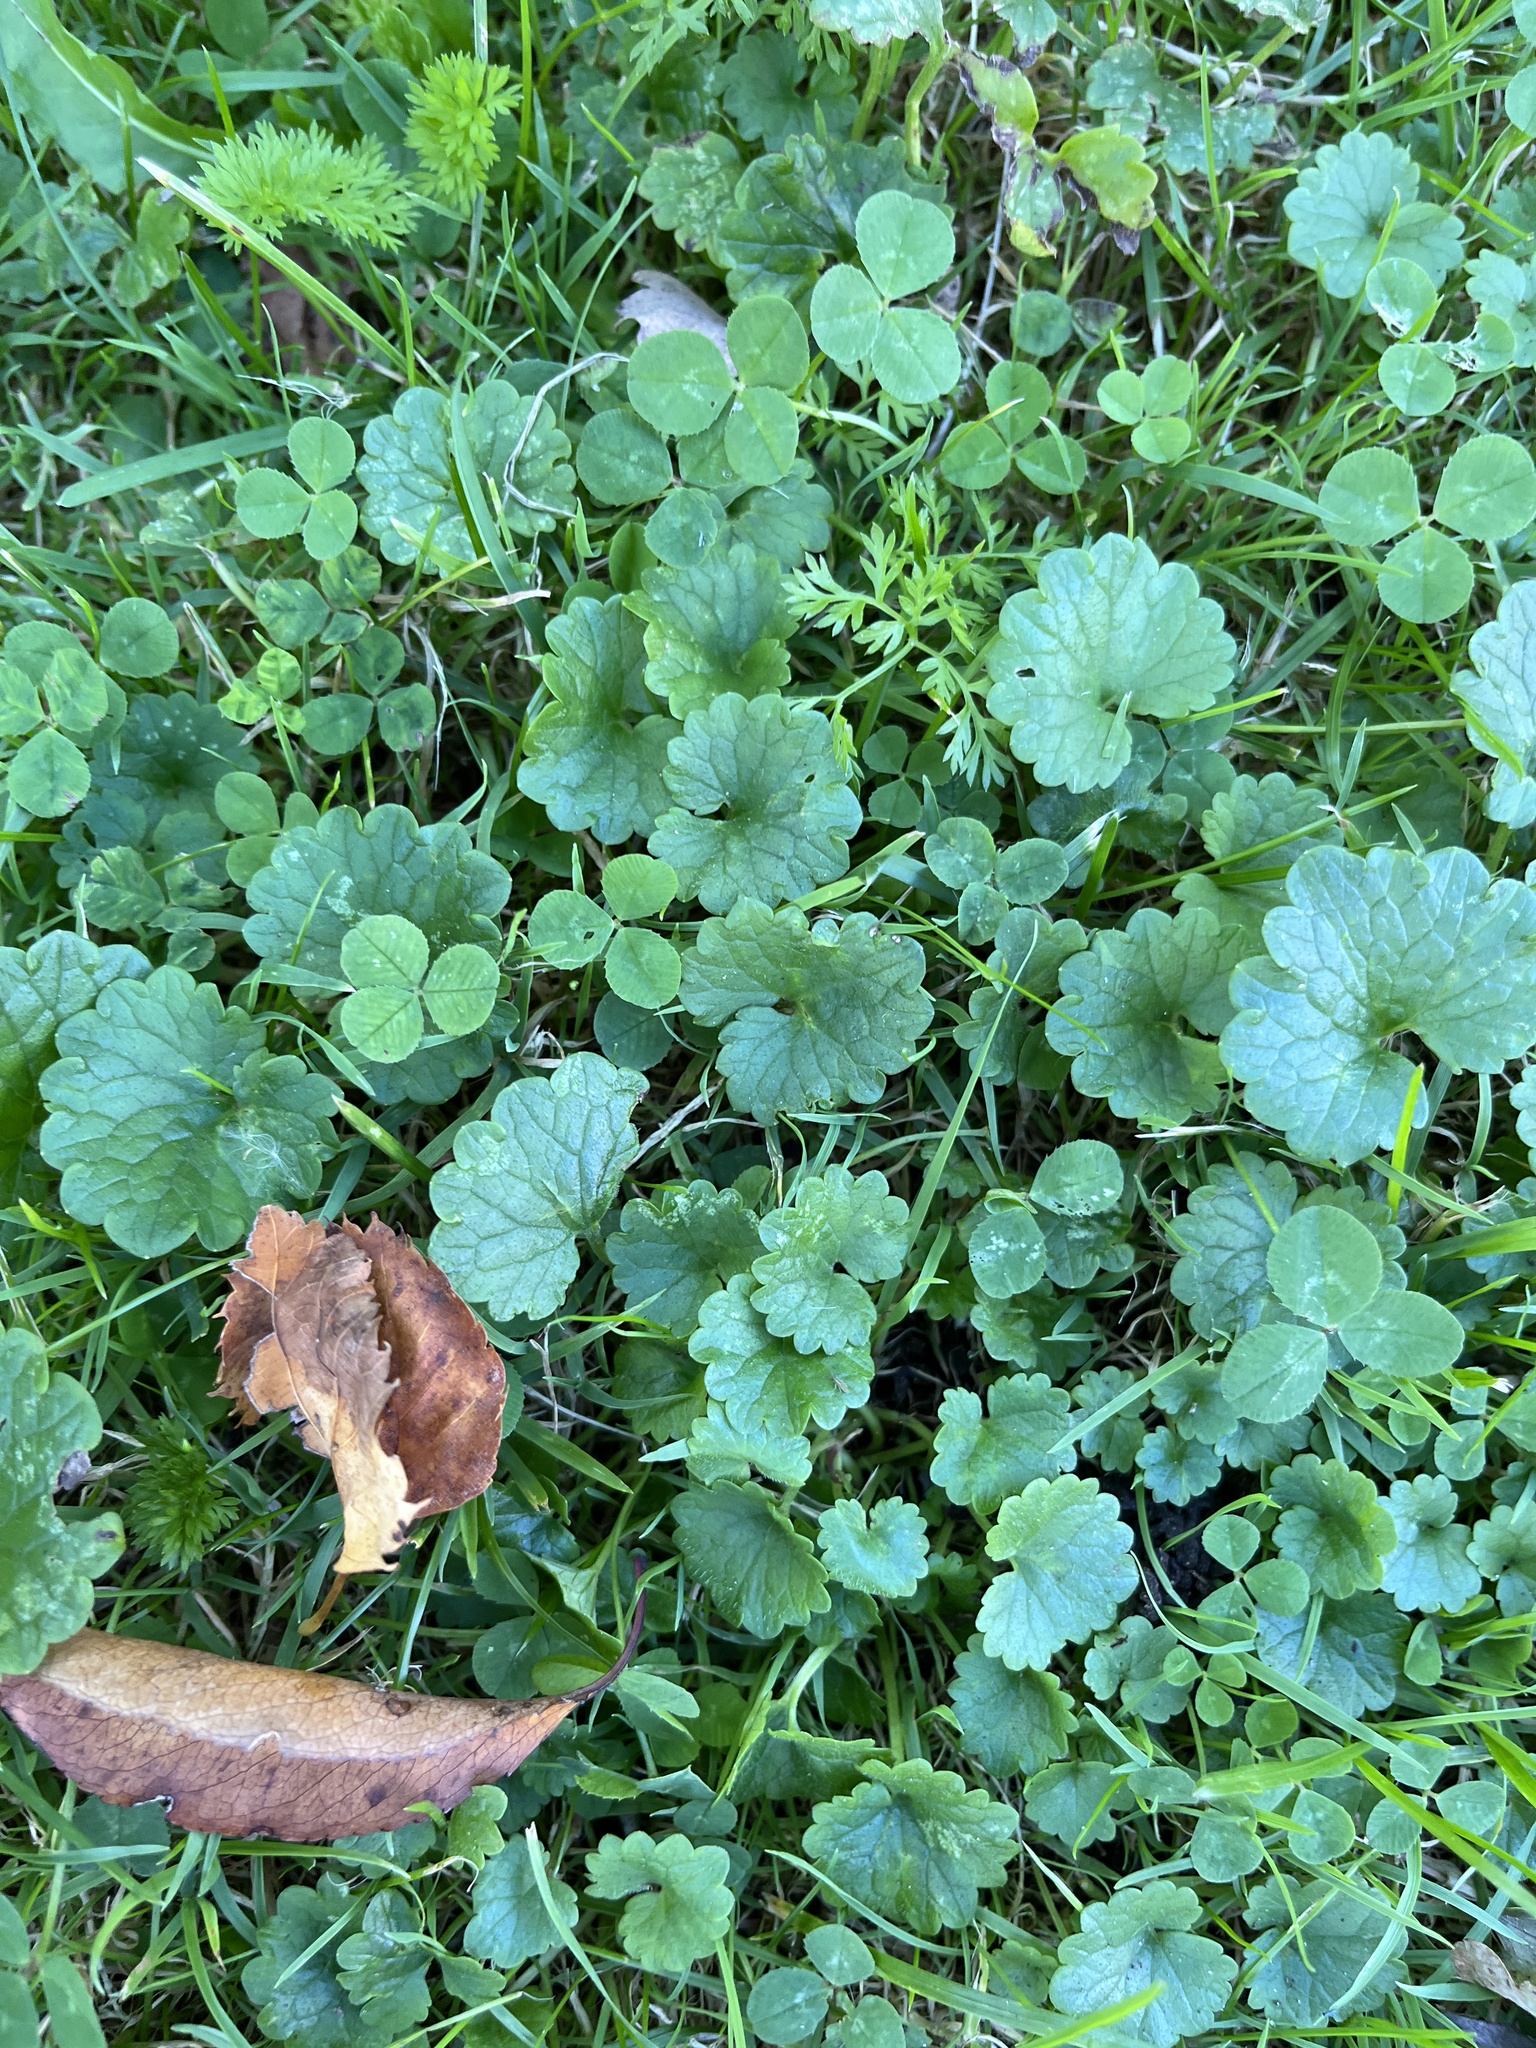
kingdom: Plantae
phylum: Tracheophyta
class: Magnoliopsida
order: Lamiales
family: Lamiaceae
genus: Glechoma
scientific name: Glechoma hederacea
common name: Ground ivy
